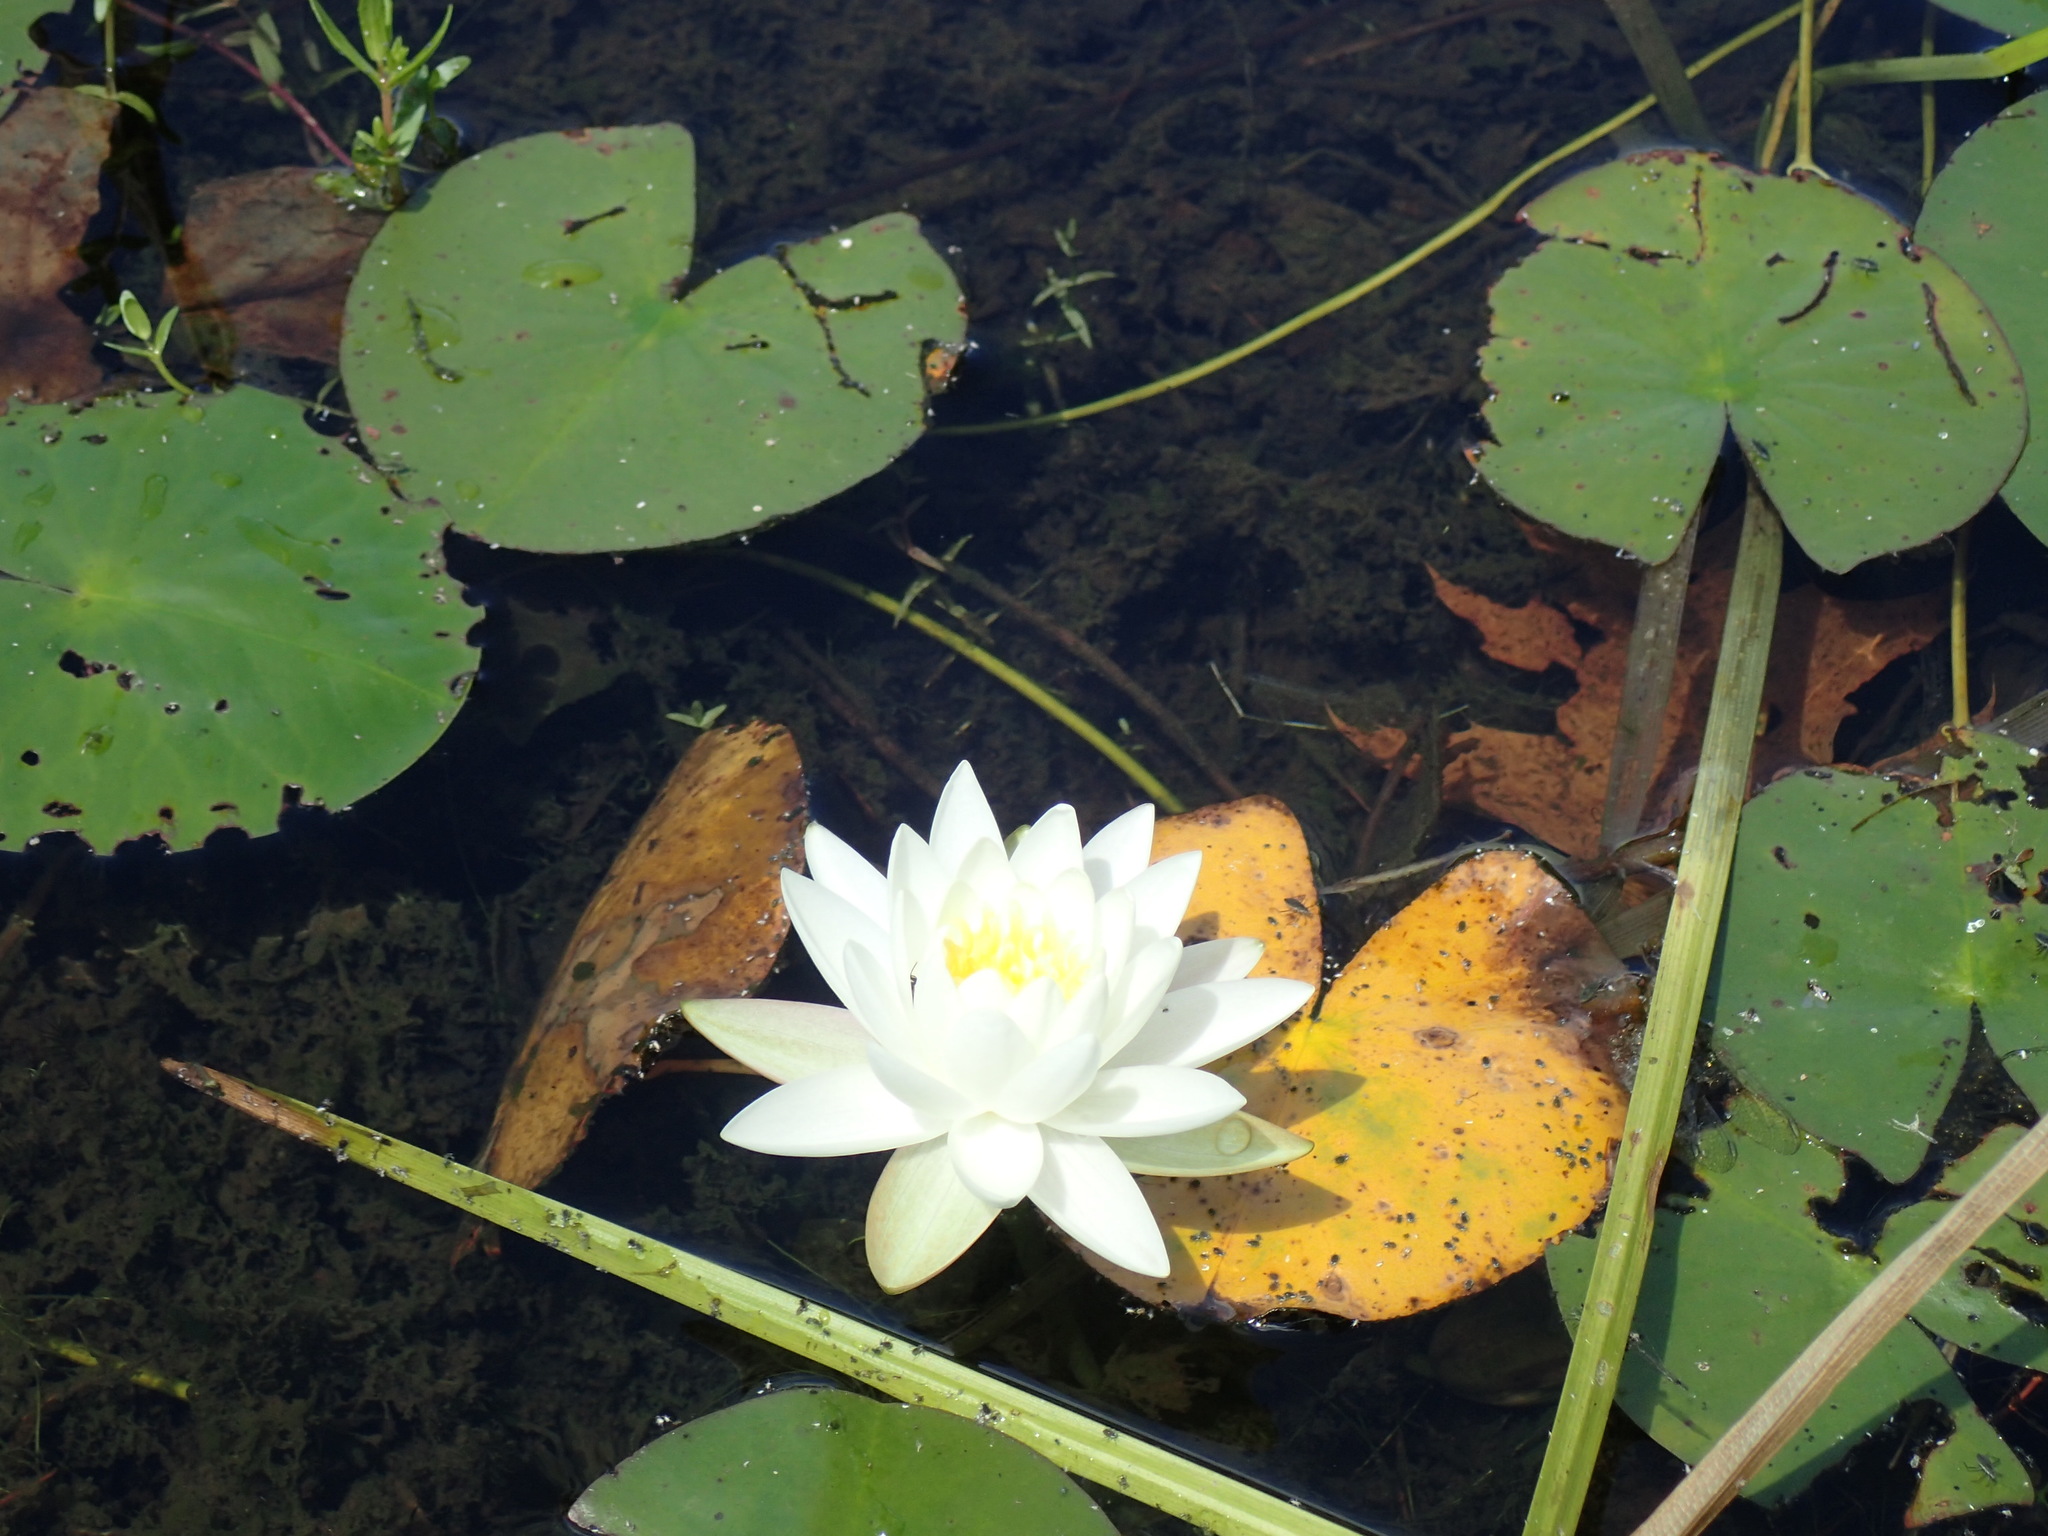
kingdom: Plantae
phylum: Tracheophyta
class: Magnoliopsida
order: Nymphaeales
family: Nymphaeaceae
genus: Nymphaea
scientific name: Nymphaea odorata
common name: Fragrant water-lily
